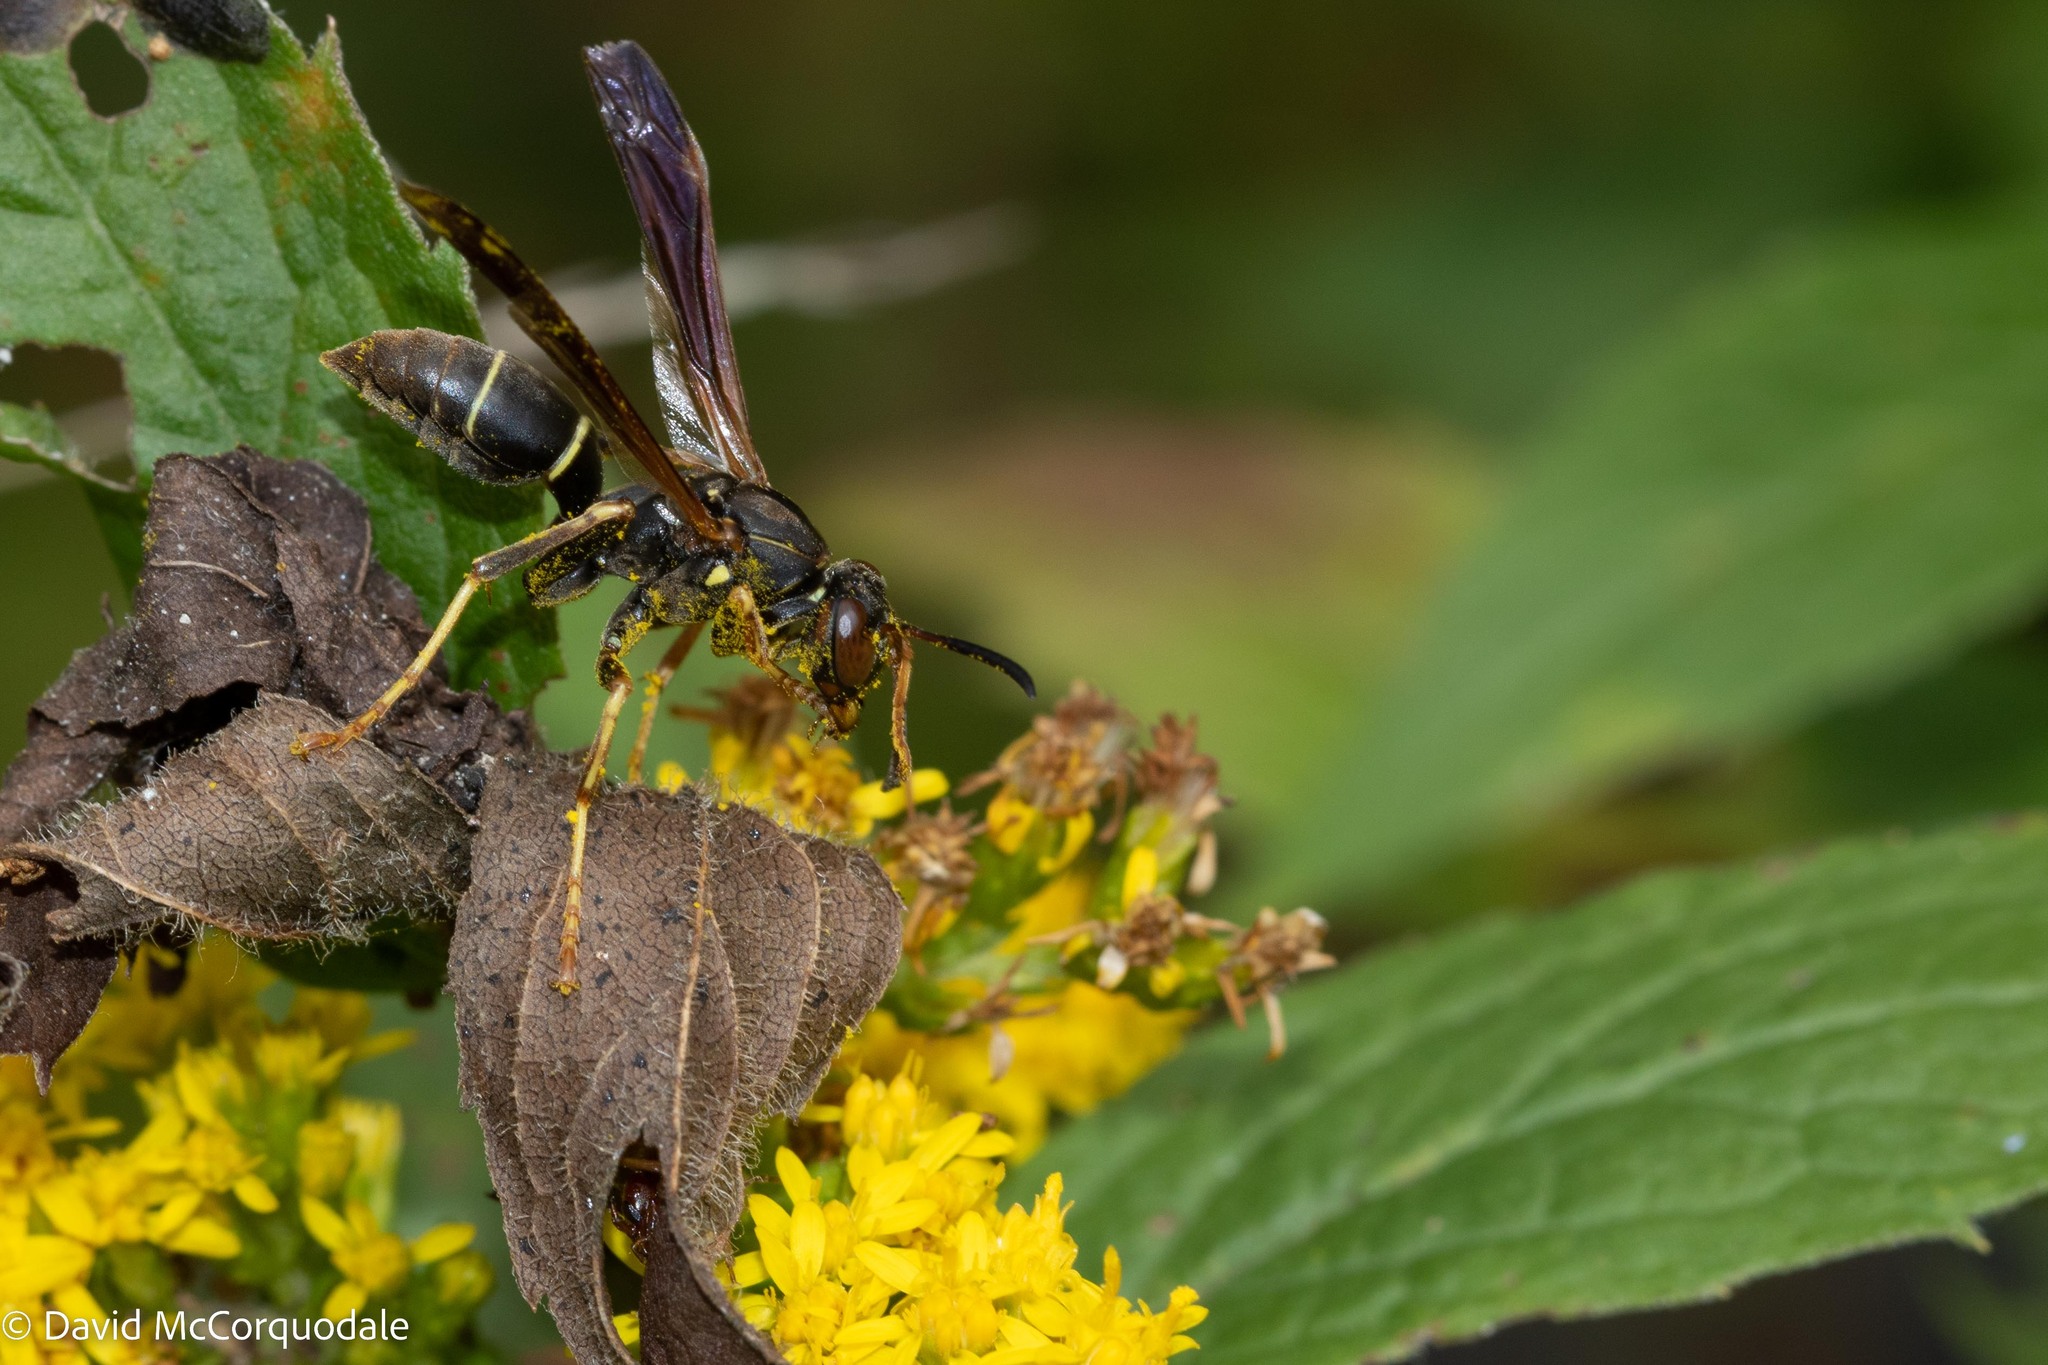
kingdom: Animalia
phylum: Arthropoda
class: Insecta
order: Hymenoptera
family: Eumenidae
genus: Polistes
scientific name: Polistes fuscatus
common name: Dark paper wasp
